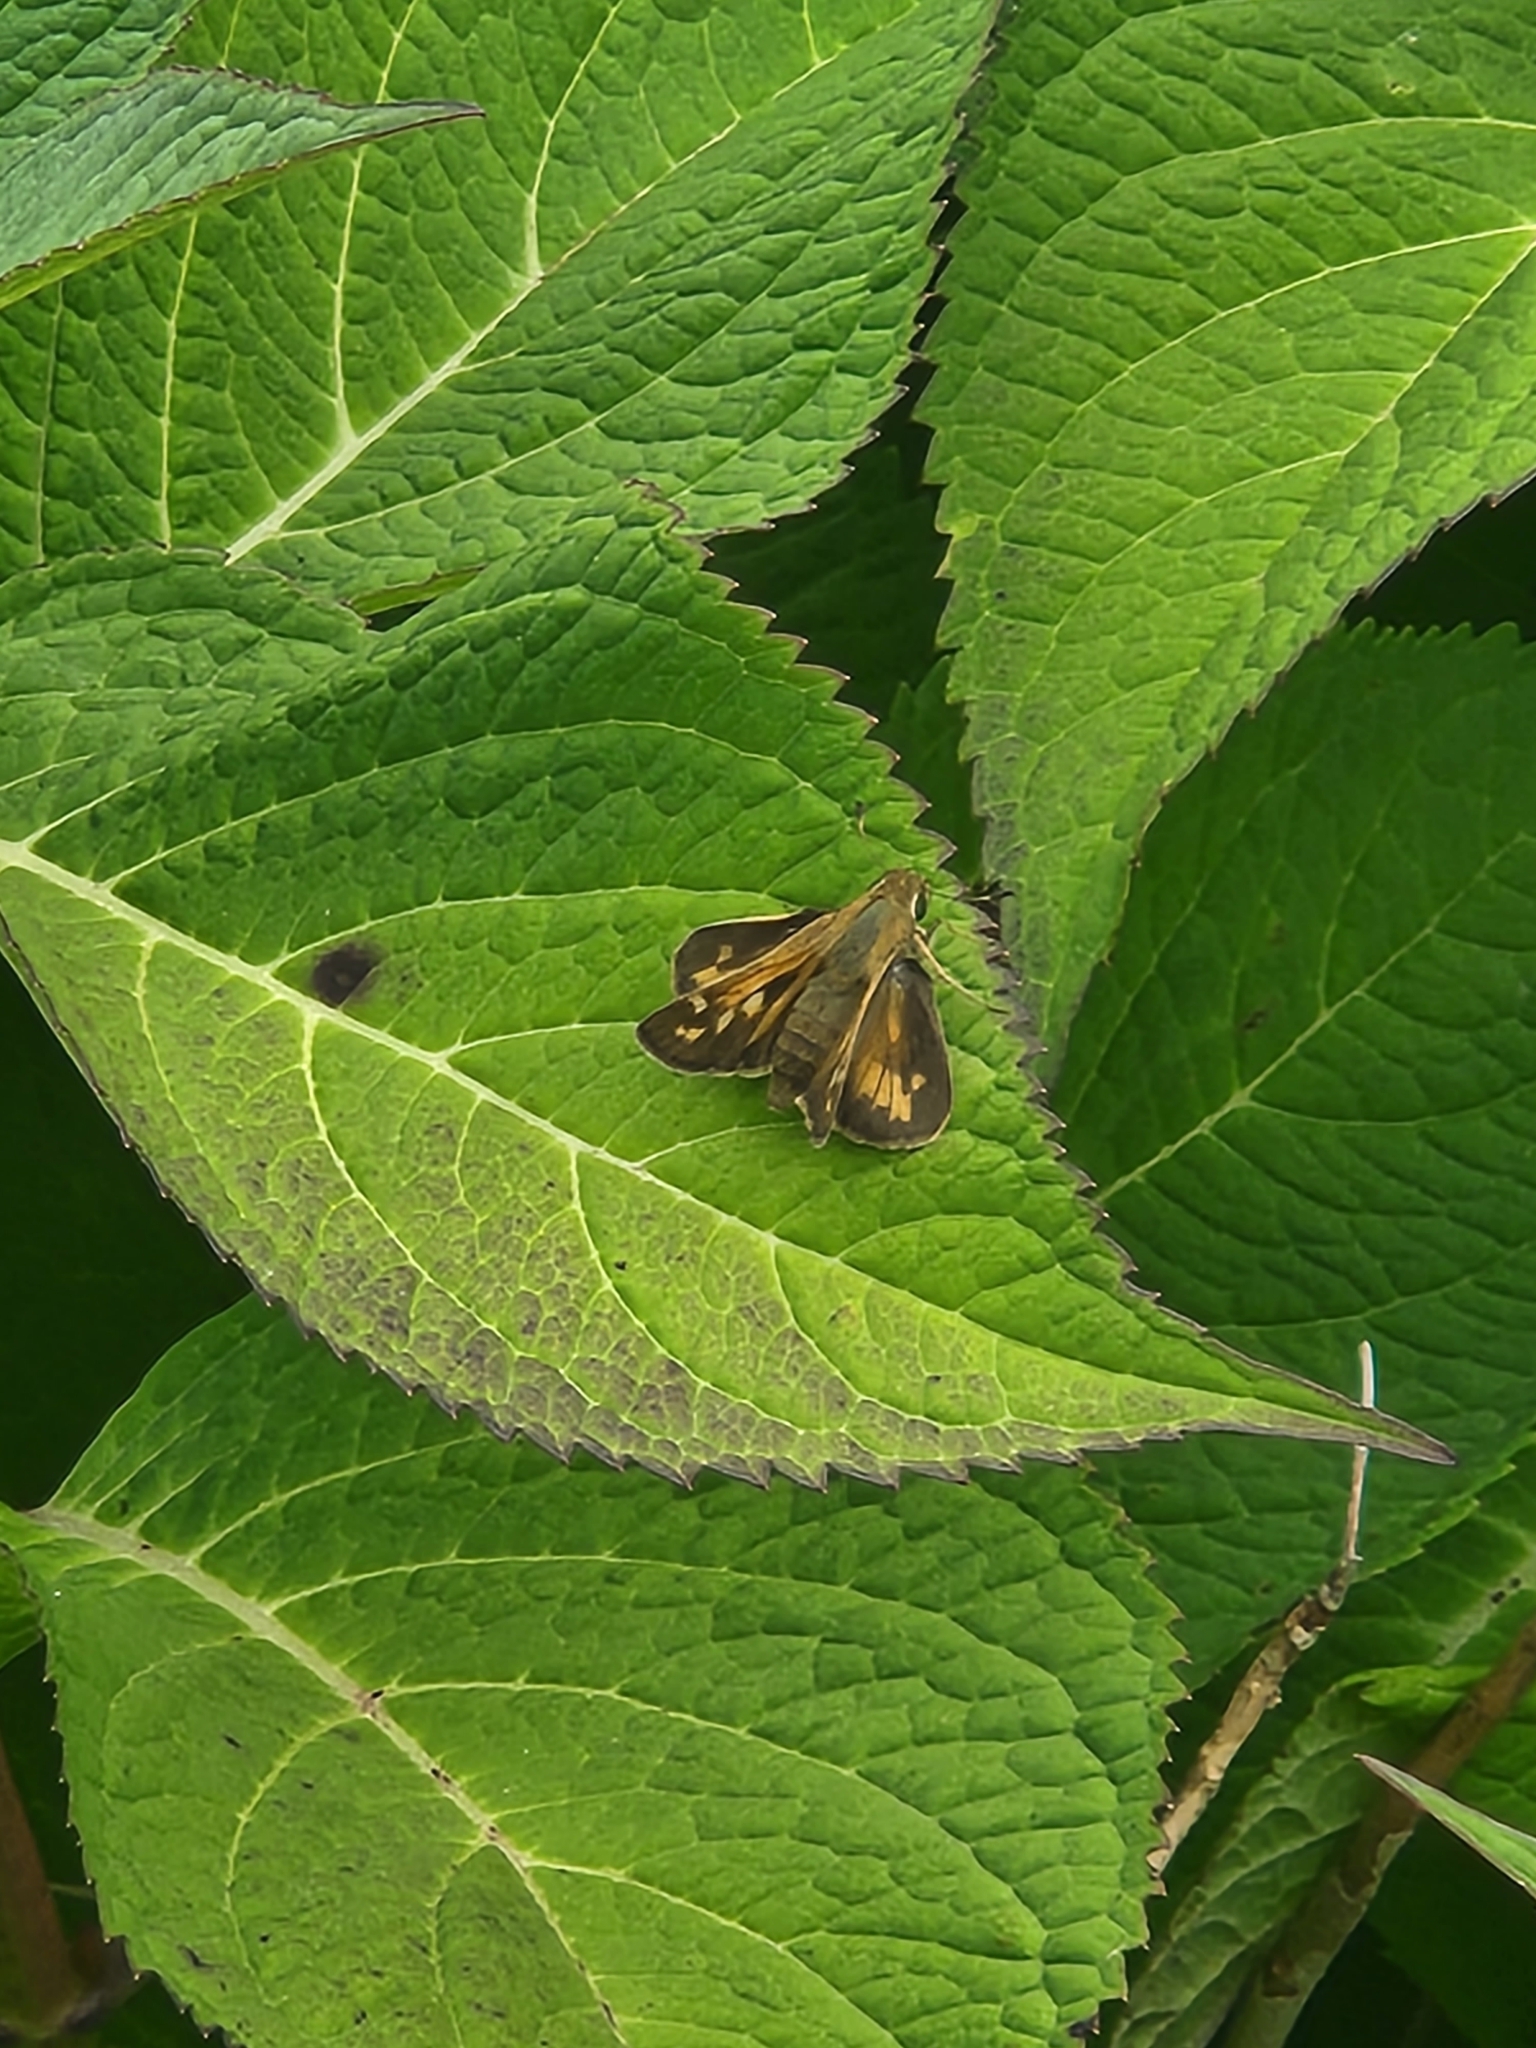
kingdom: Animalia
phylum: Arthropoda
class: Insecta
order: Lepidoptera
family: Hesperiidae
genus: Atalopedes
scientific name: Atalopedes
